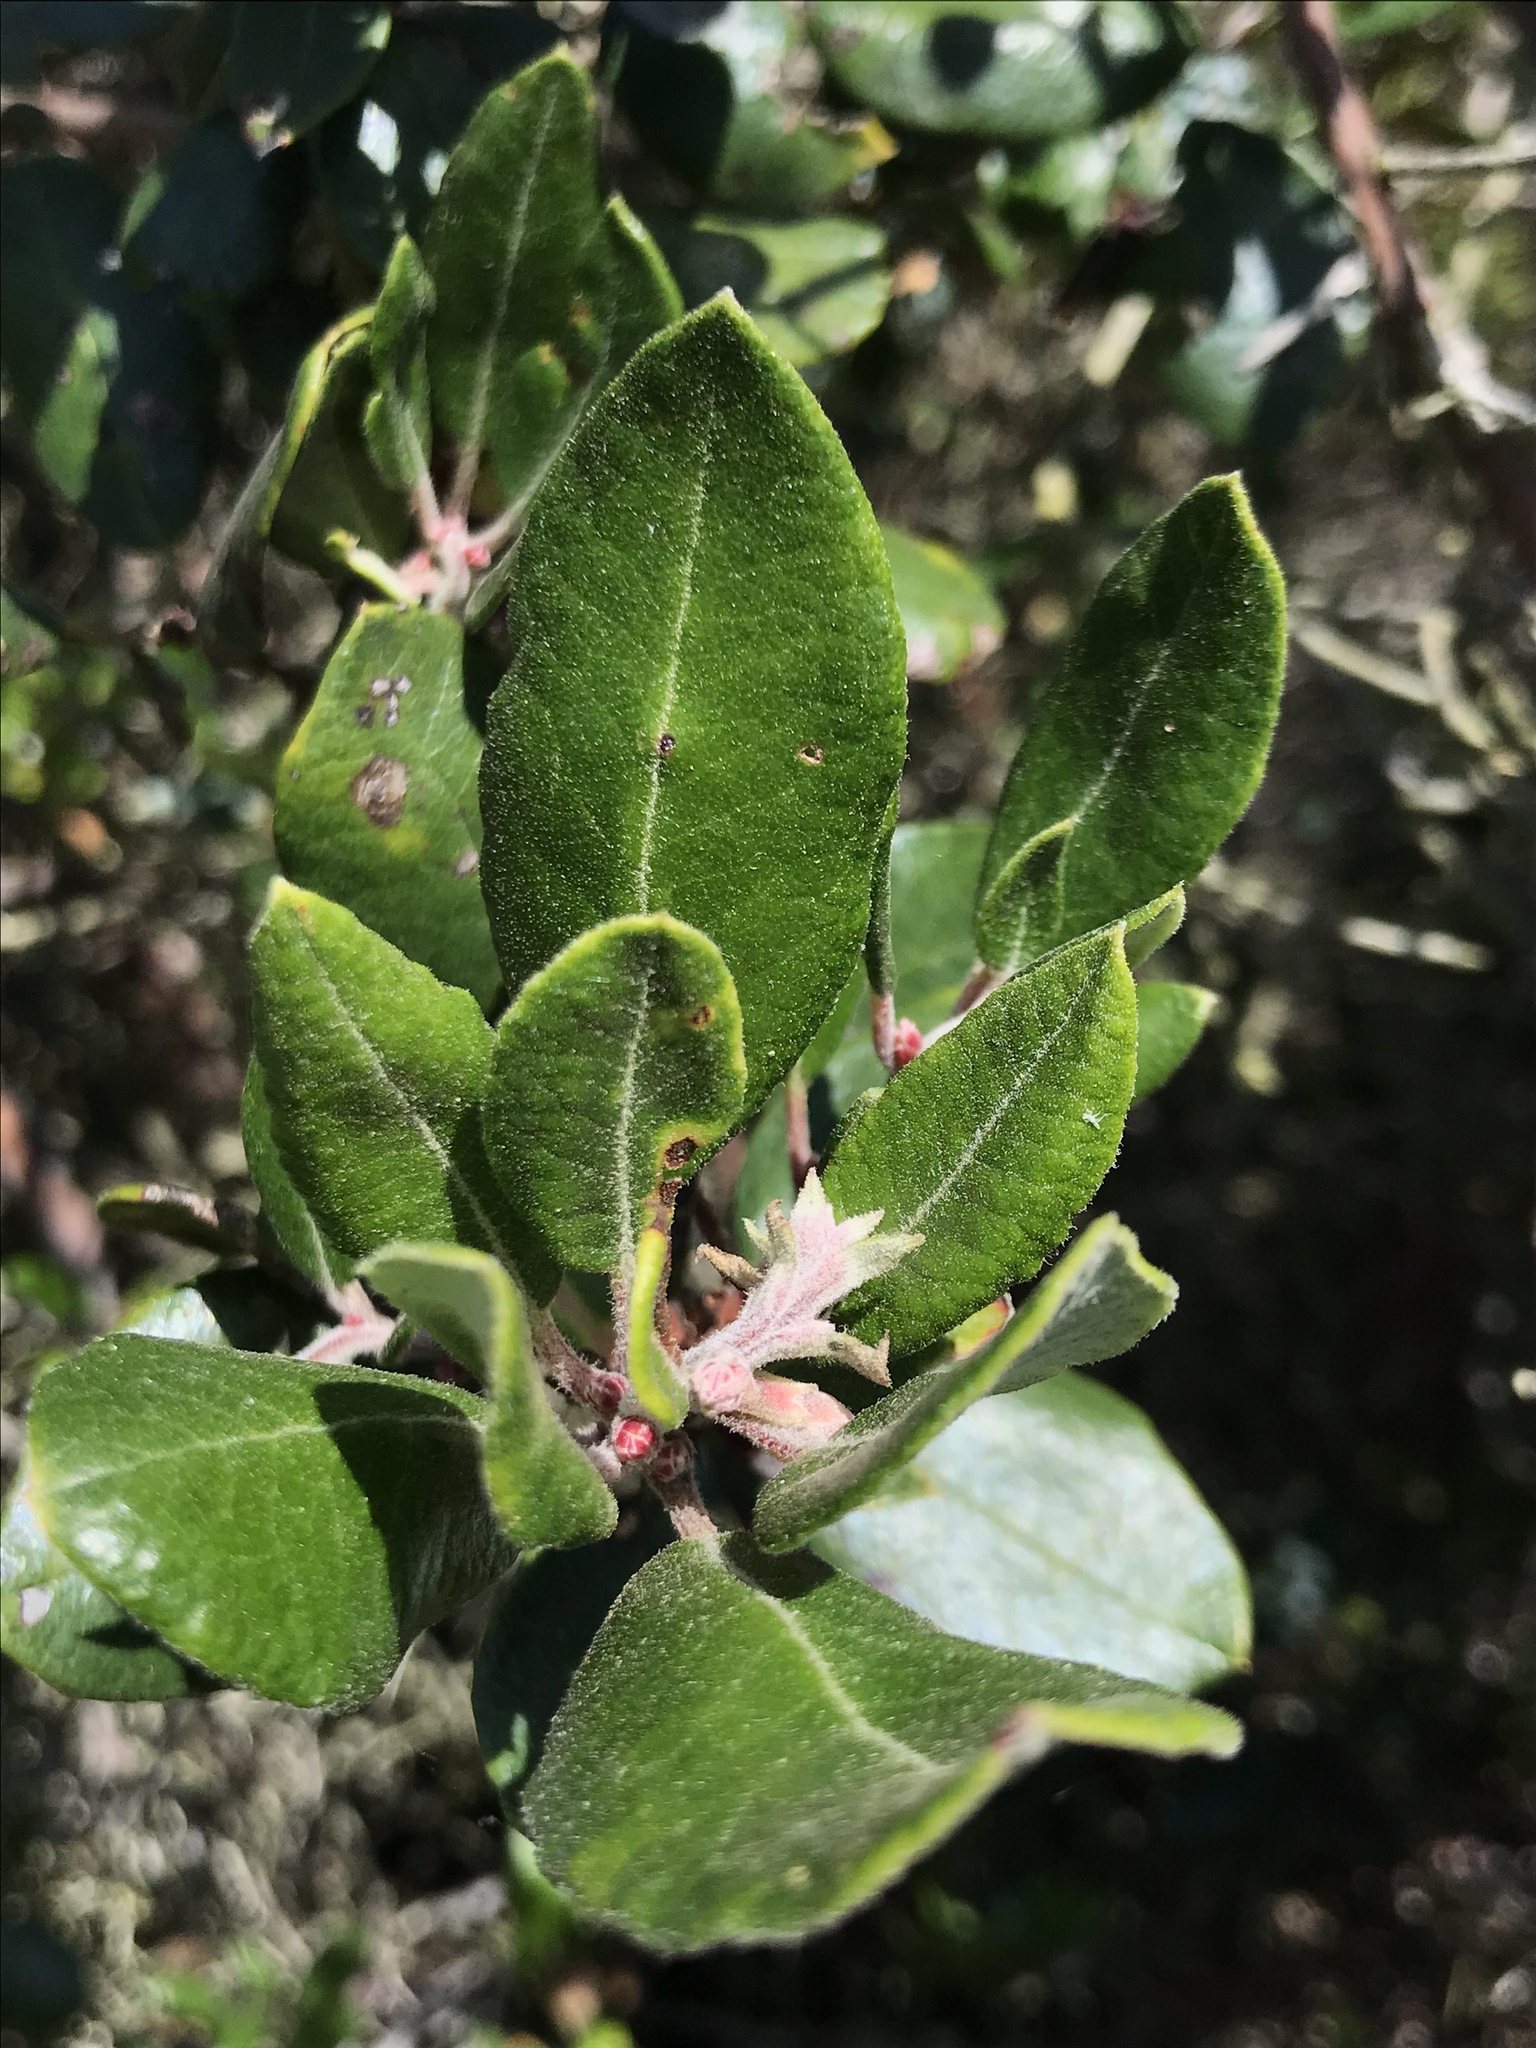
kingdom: Plantae
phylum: Tracheophyta
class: Magnoliopsida
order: Ericales
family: Ericaceae
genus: Arctostaphylos
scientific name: Arctostaphylos bicolor
